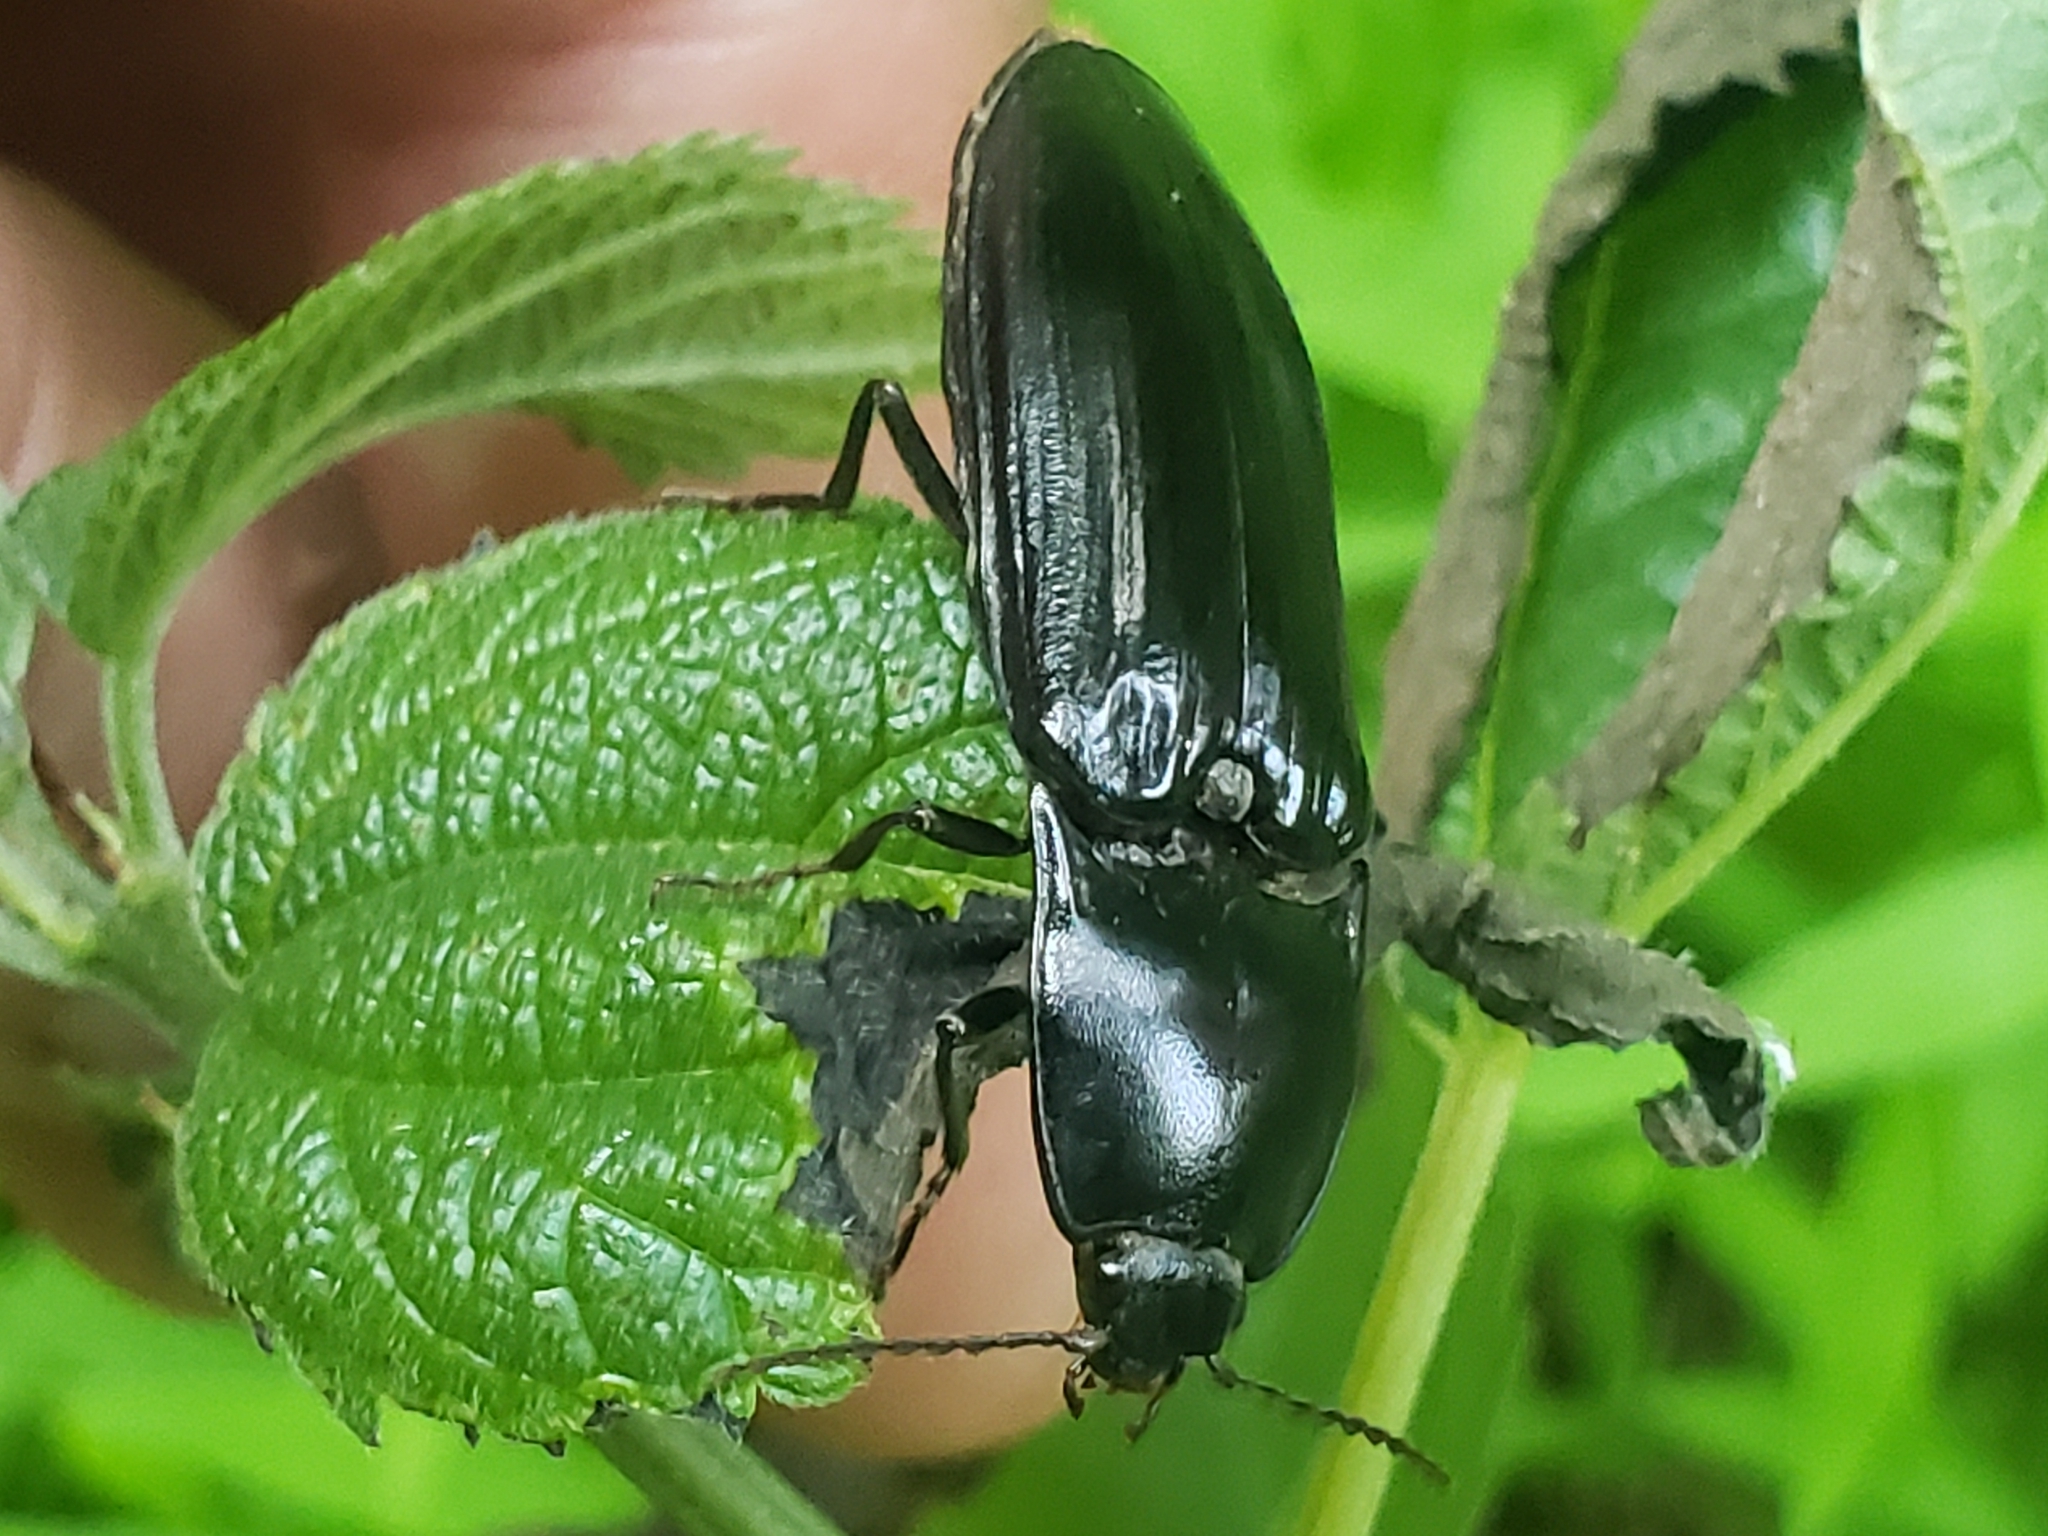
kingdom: Animalia
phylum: Arthropoda
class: Insecta
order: Coleoptera
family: Elateridae
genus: Melanactes
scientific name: Melanactes piceus
